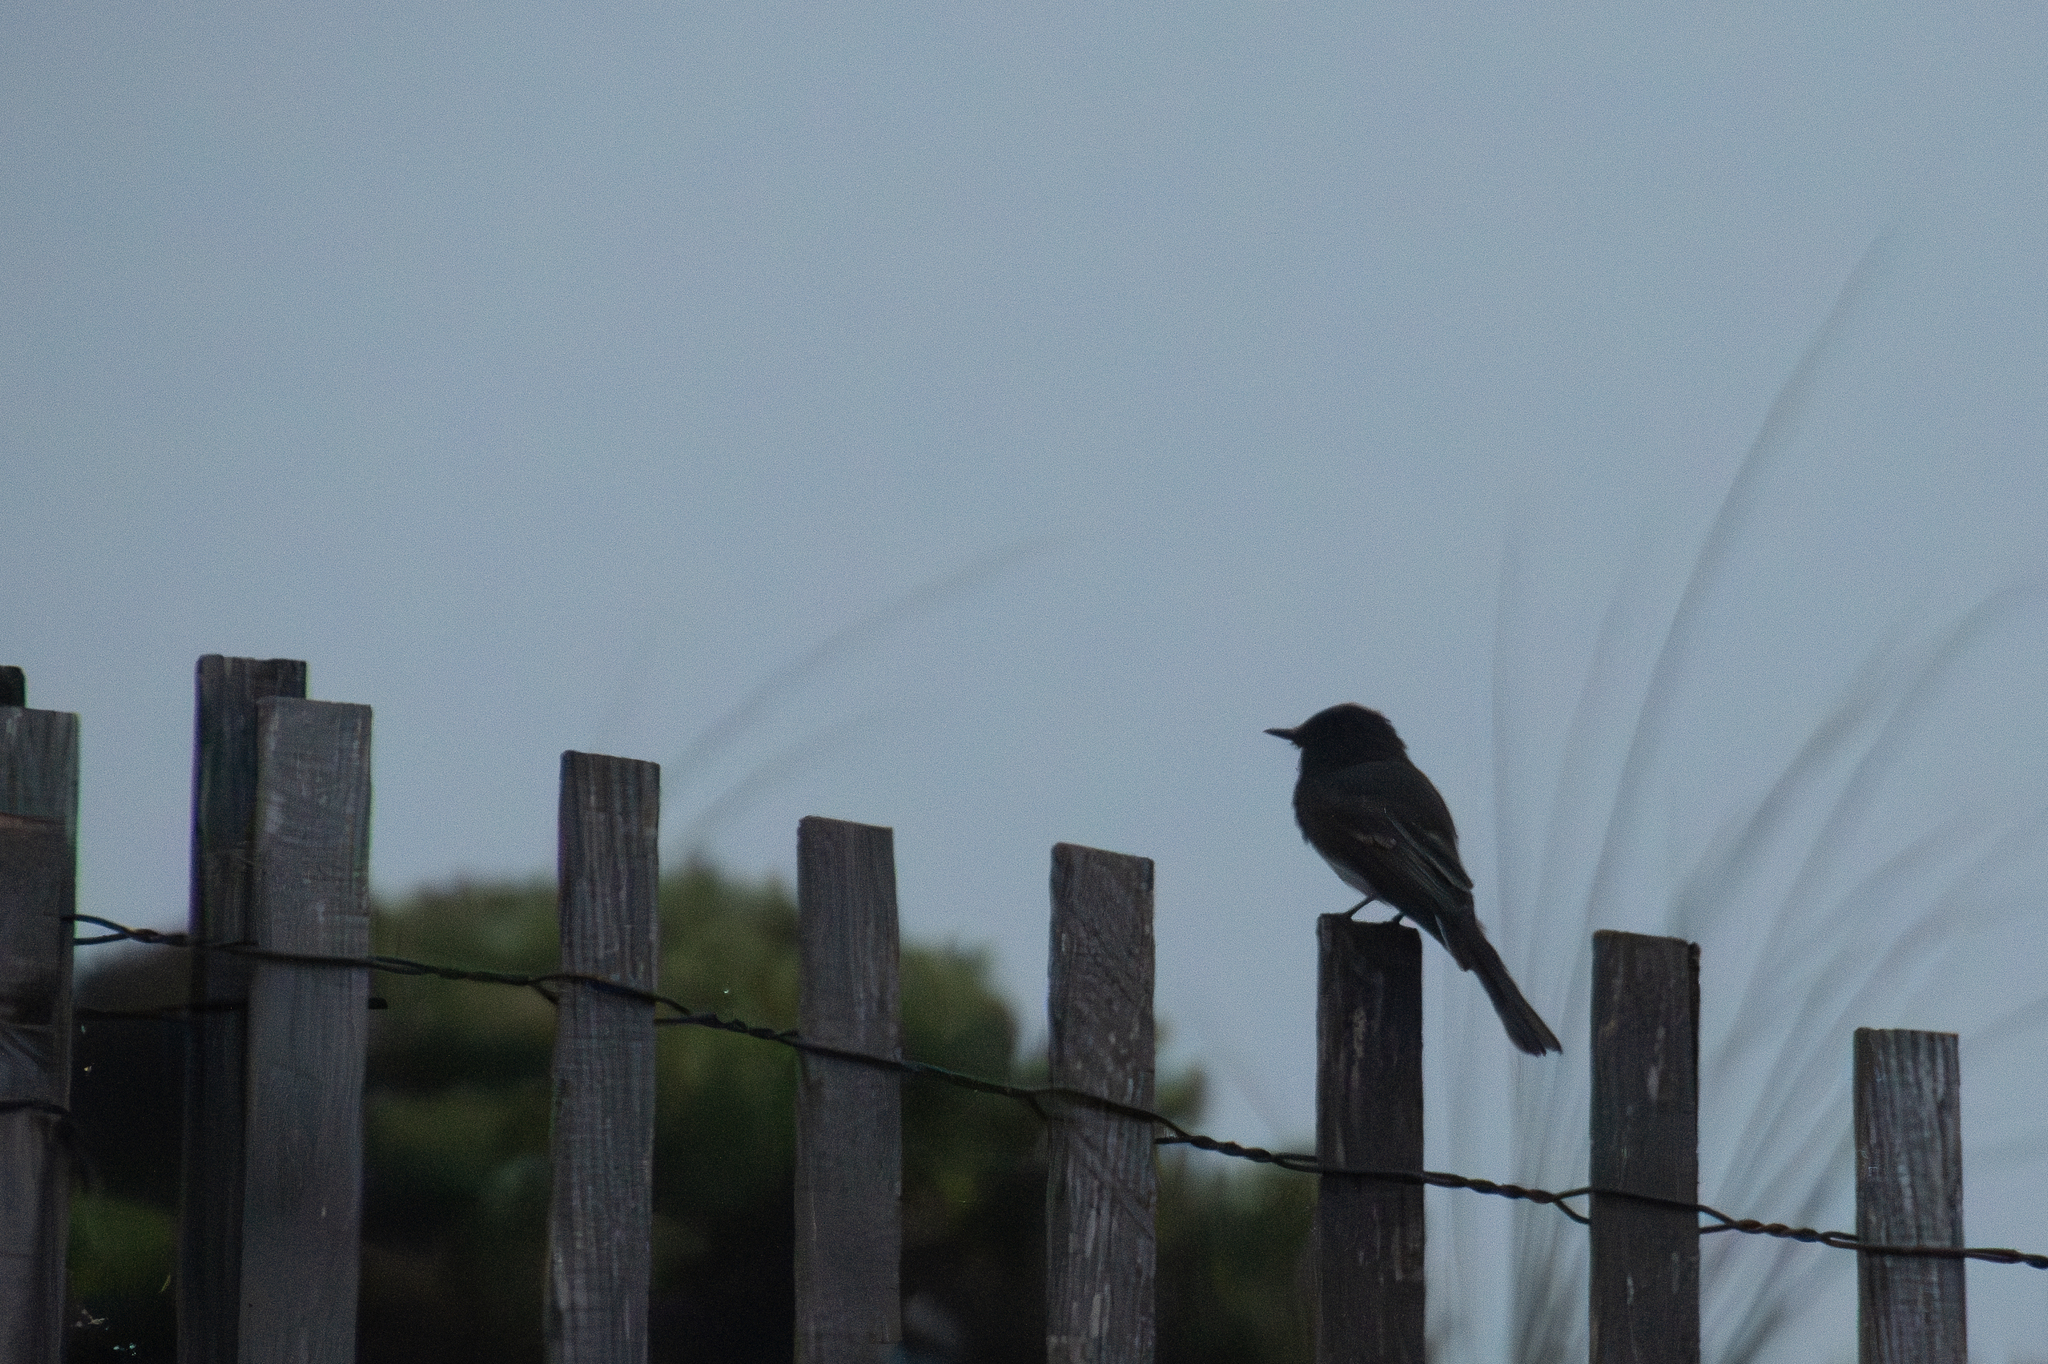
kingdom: Animalia
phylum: Chordata
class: Aves
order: Passeriformes
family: Tyrannidae
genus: Sayornis
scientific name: Sayornis nigricans
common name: Black phoebe
